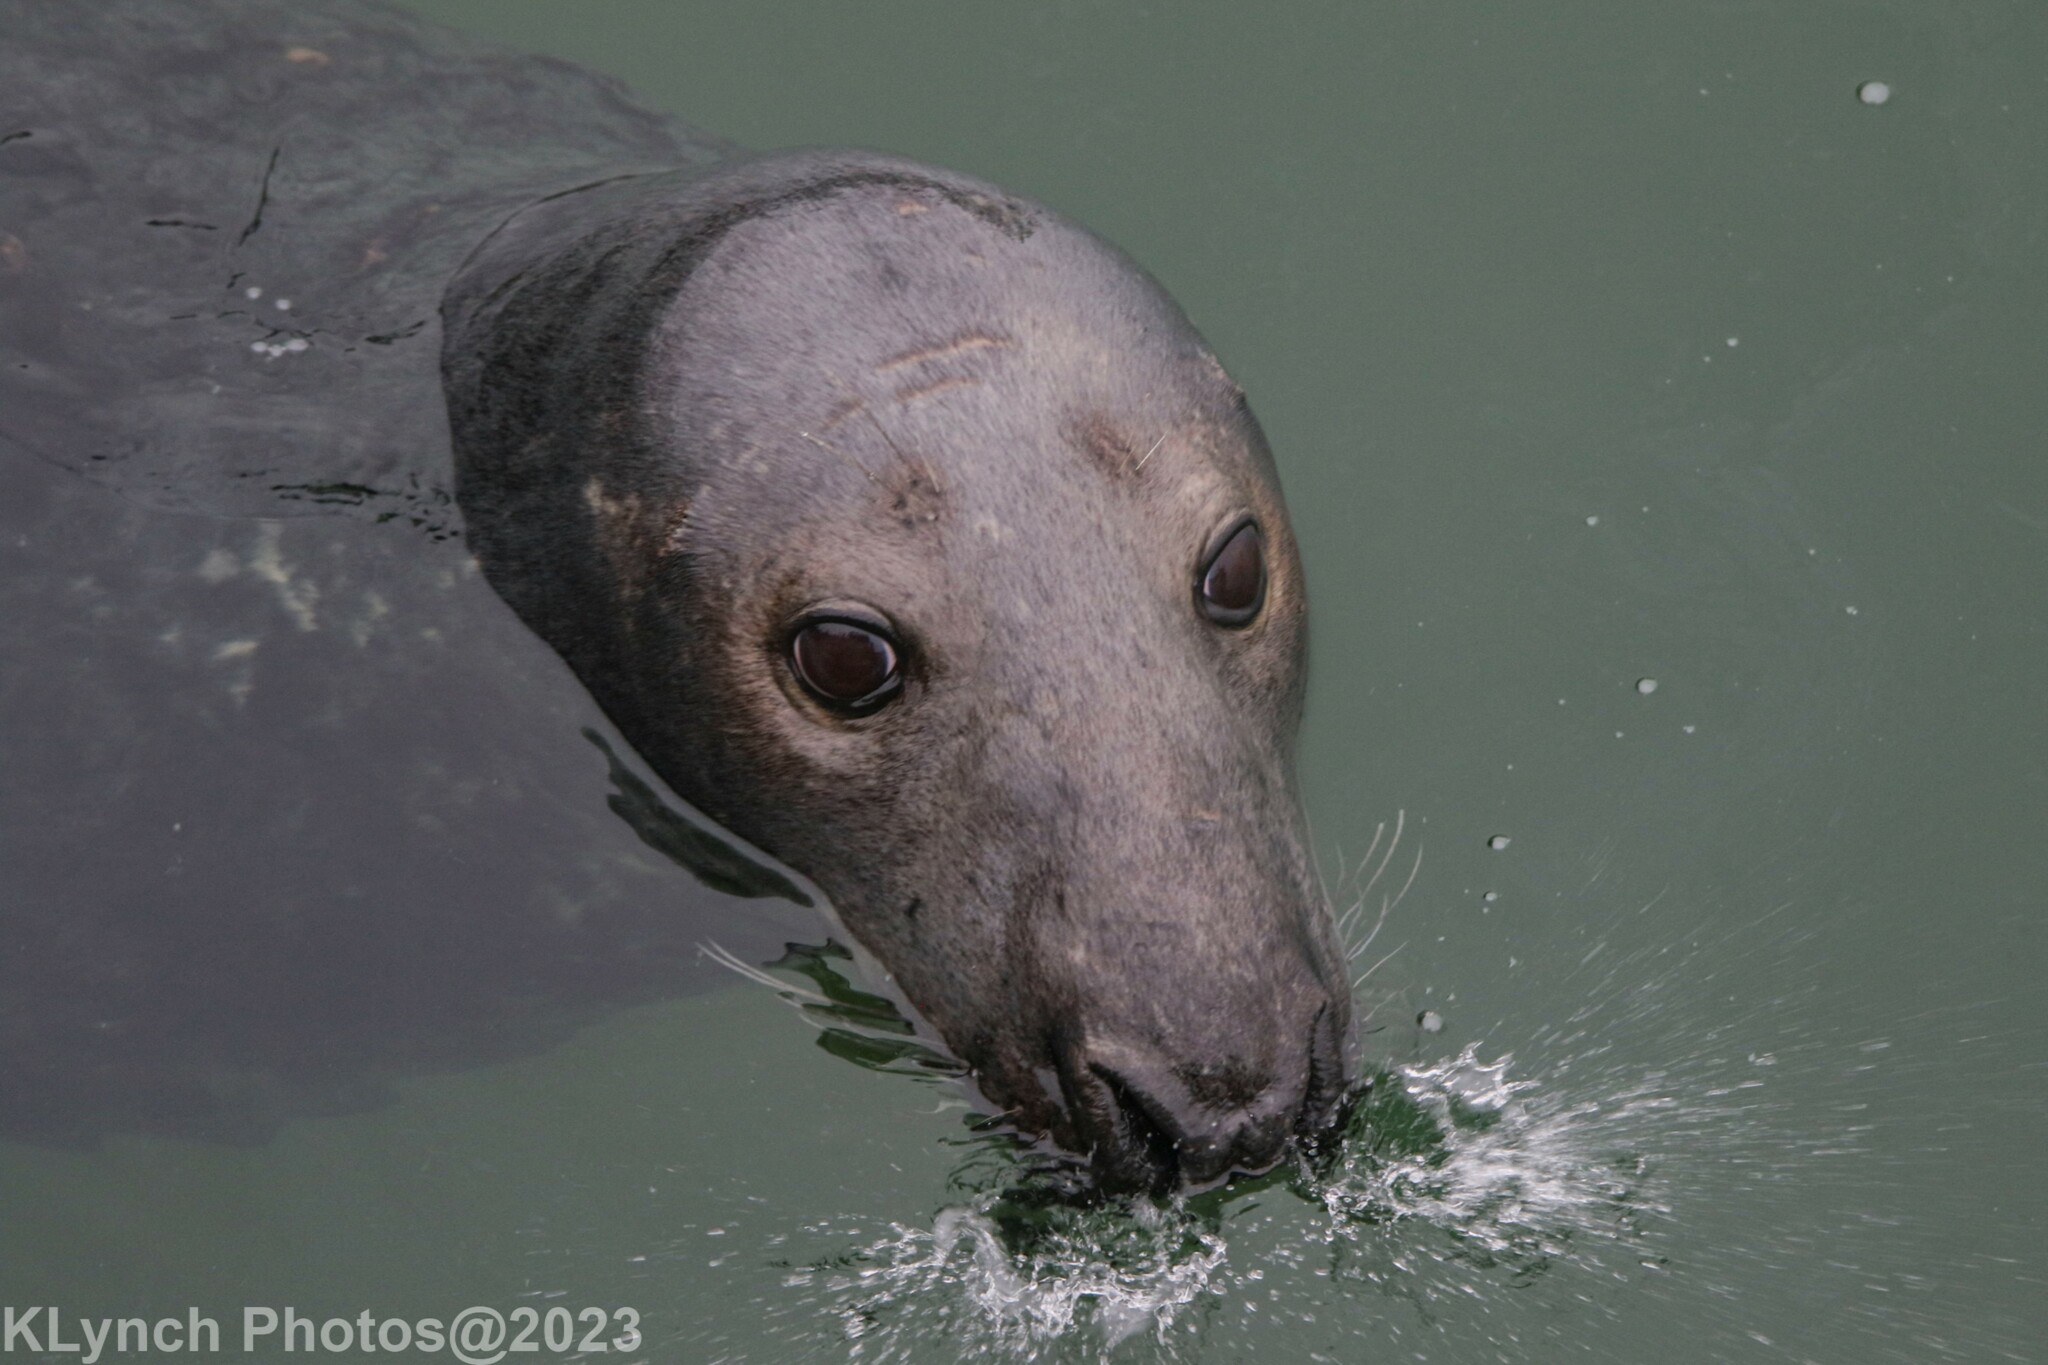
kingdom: Animalia
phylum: Chordata
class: Mammalia
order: Carnivora
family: Phocidae
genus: Halichoerus
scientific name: Halichoerus grypus
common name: Grey seal
